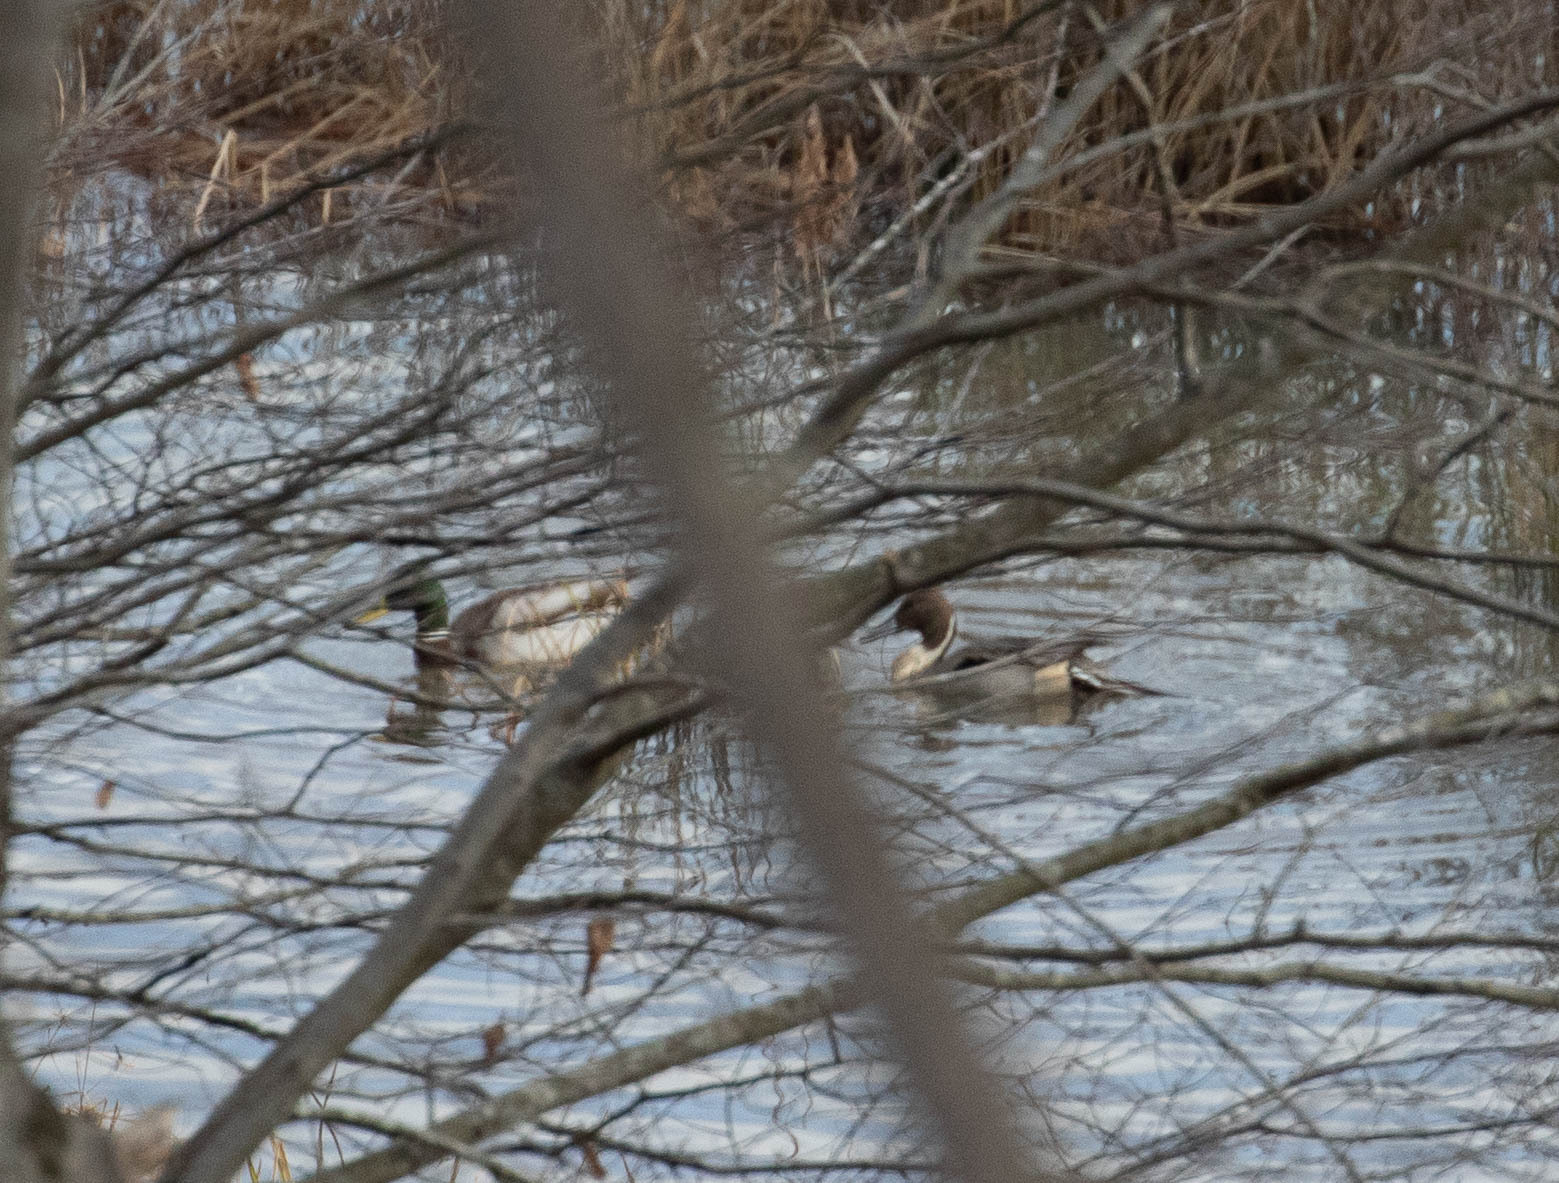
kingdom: Animalia
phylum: Chordata
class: Aves
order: Anseriformes
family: Anatidae
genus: Anas
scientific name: Anas acuta
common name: Northern pintail
